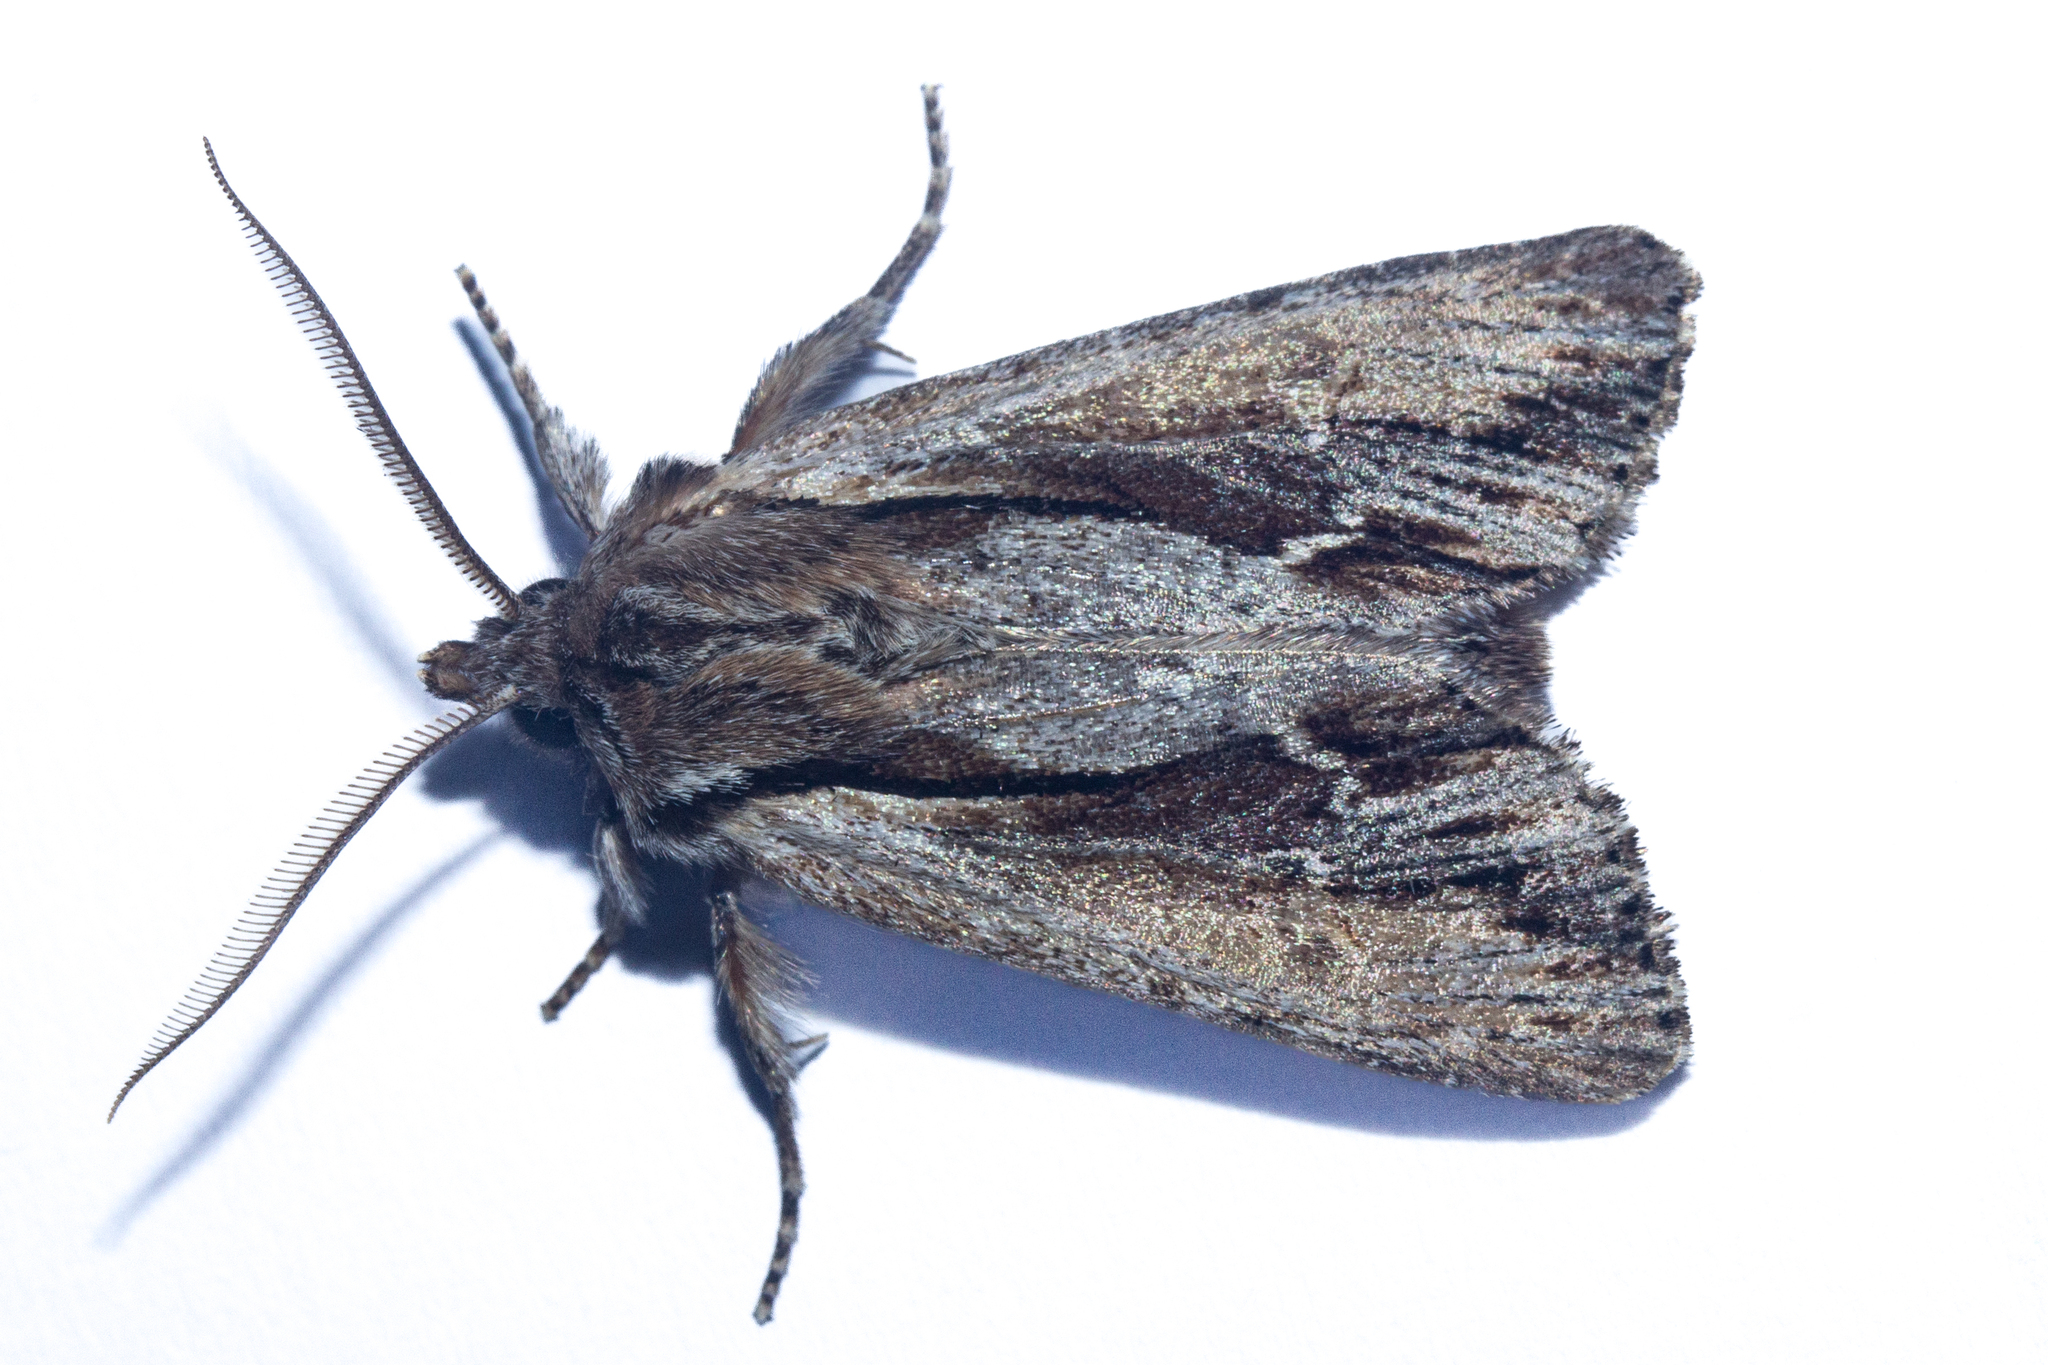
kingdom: Animalia
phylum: Arthropoda
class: Insecta
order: Lepidoptera
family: Noctuidae
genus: Ichneutica
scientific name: Ichneutica
